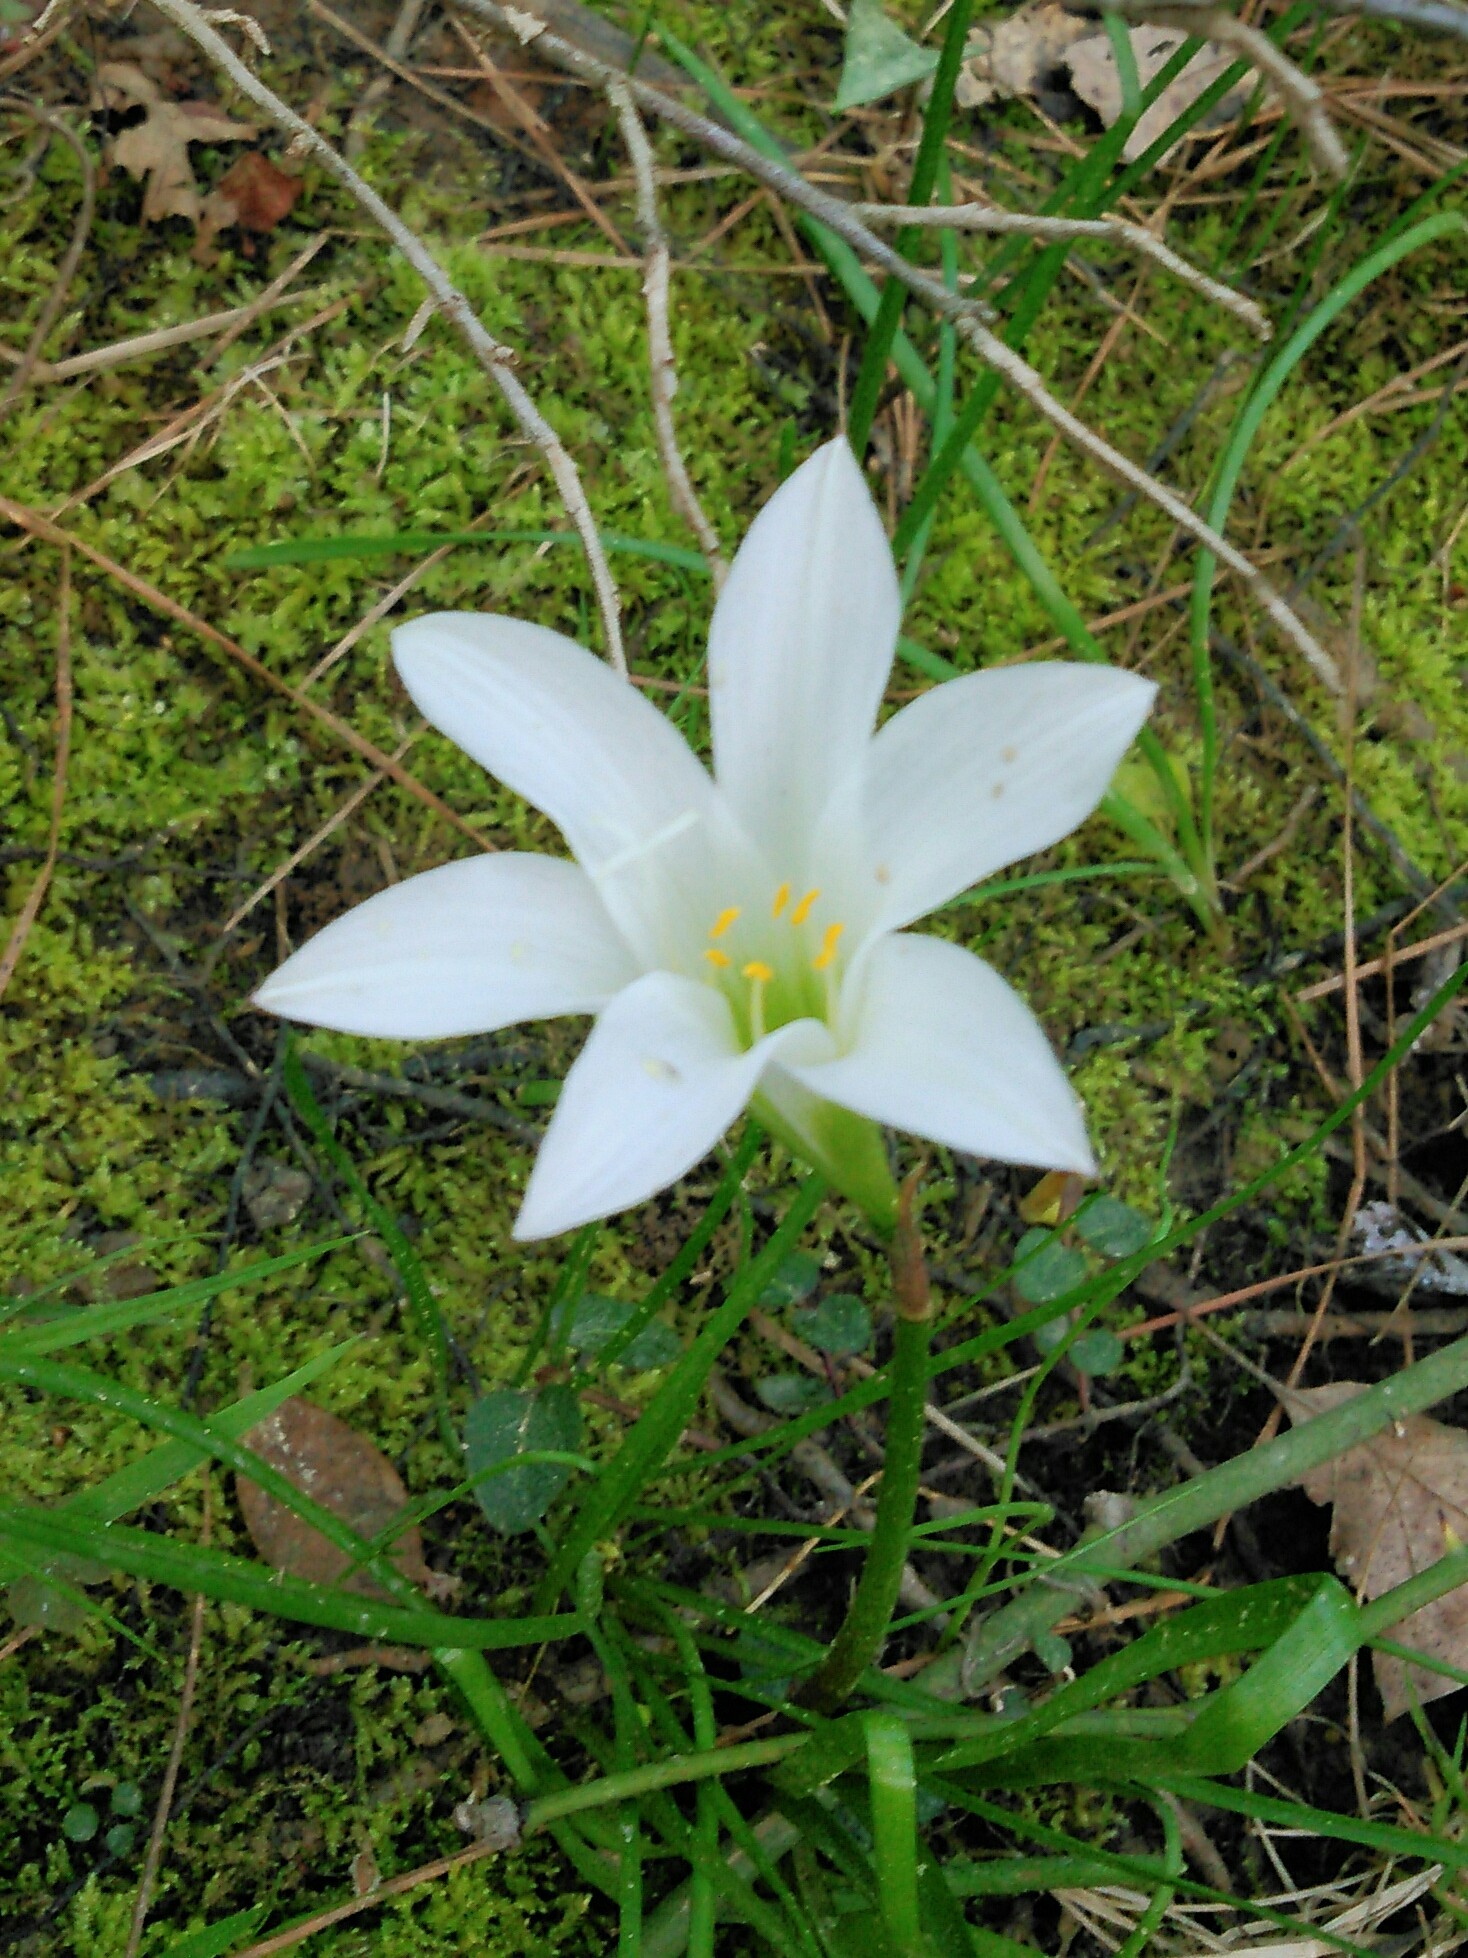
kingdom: Plantae
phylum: Tracheophyta
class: Liliopsida
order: Asparagales
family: Amaryllidaceae
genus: Zephyranthes
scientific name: Zephyranthes atamasco
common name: Atamasco lily
